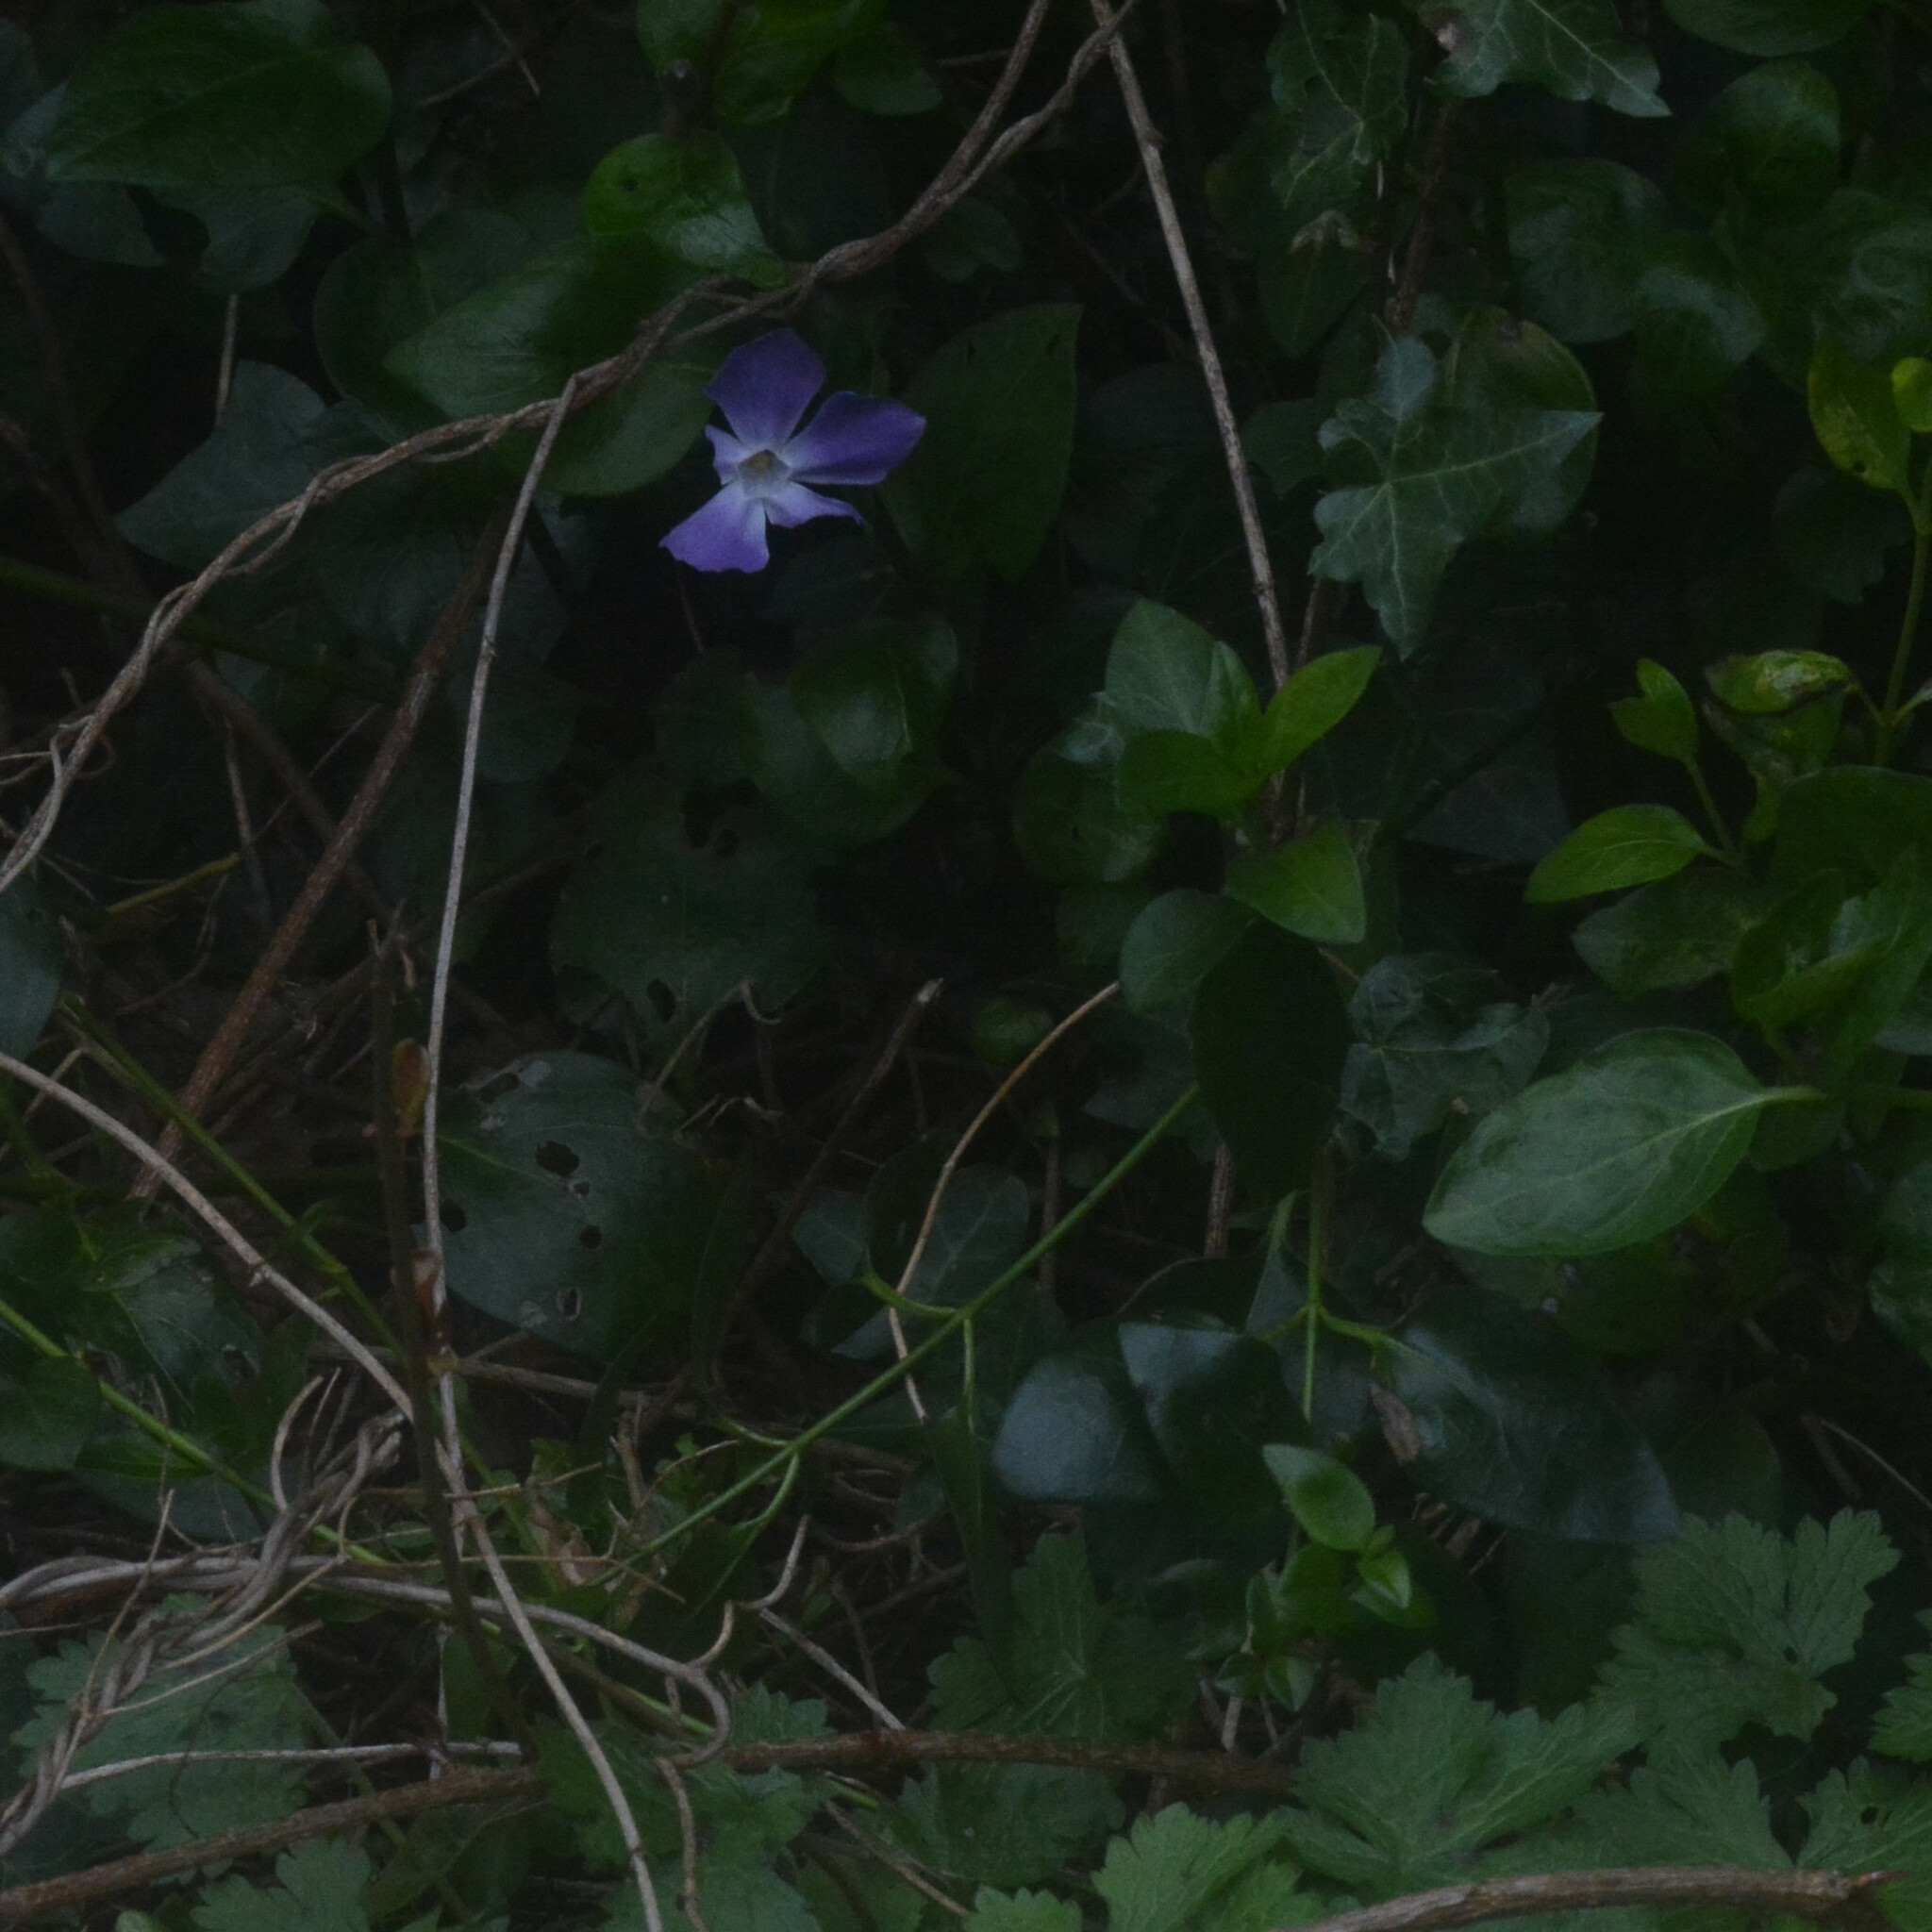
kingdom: Plantae
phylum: Tracheophyta
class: Magnoliopsida
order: Gentianales
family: Apocynaceae
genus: Vinca
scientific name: Vinca major
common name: Greater periwinkle
